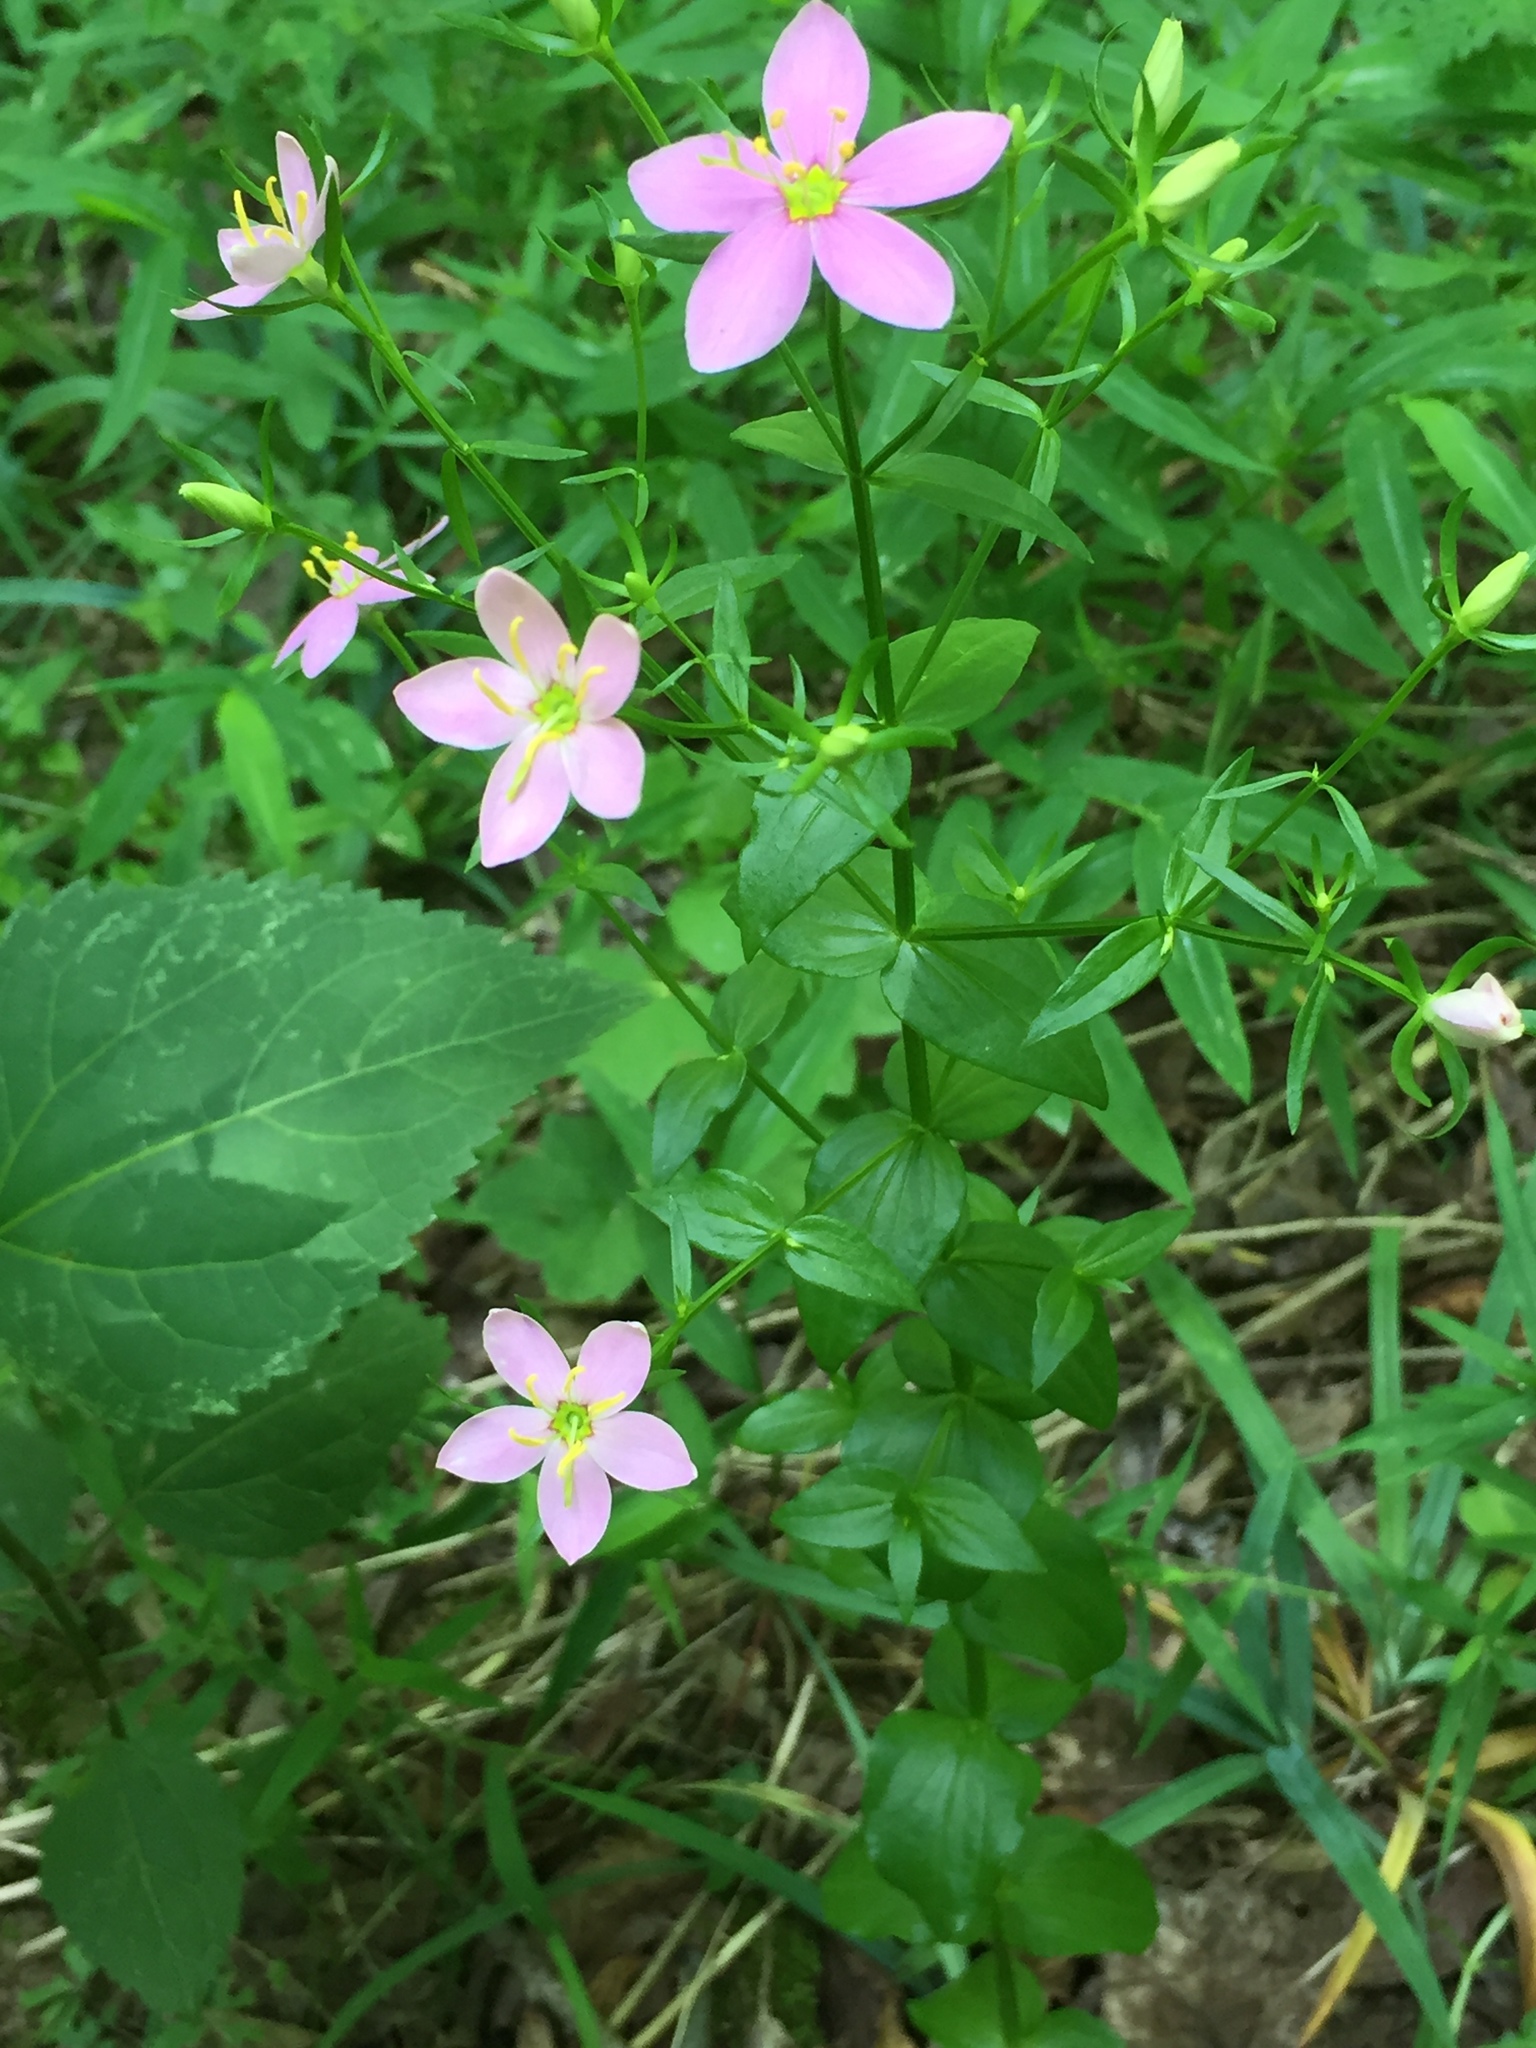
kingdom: Plantae
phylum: Tracheophyta
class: Magnoliopsida
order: Gentianales
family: Gentianaceae
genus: Sabatia
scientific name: Sabatia angularis
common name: Rose-pink
